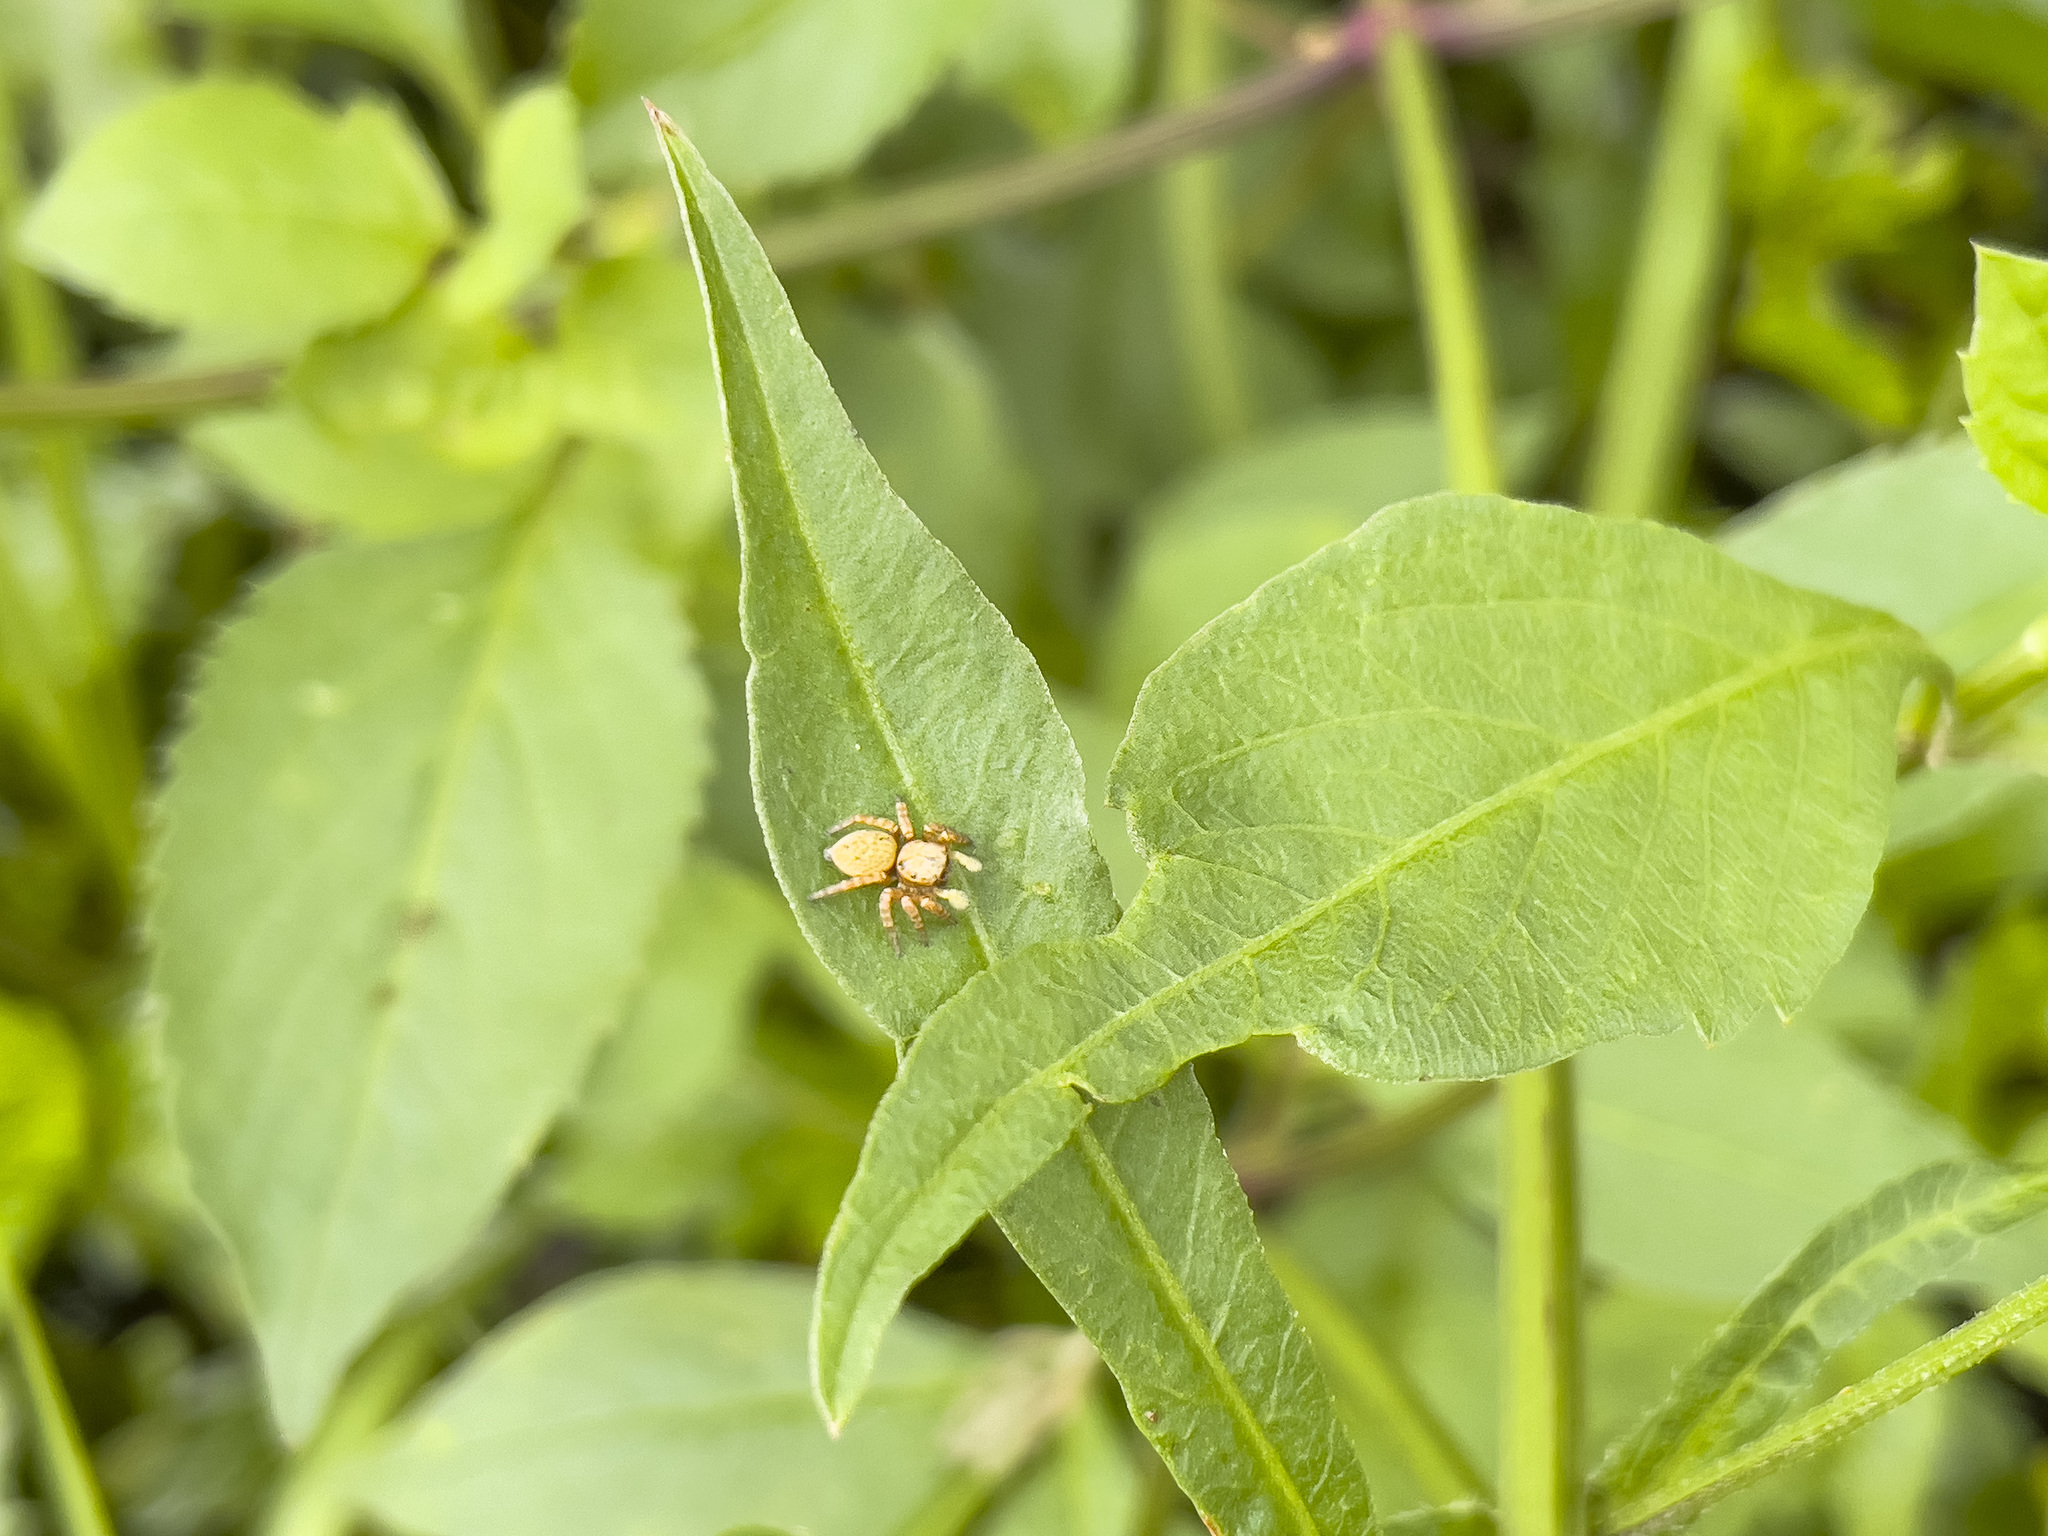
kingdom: Animalia
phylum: Arthropoda
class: Arachnida
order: Araneae
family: Salticidae
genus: Carrhotus
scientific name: Carrhotus sannio
